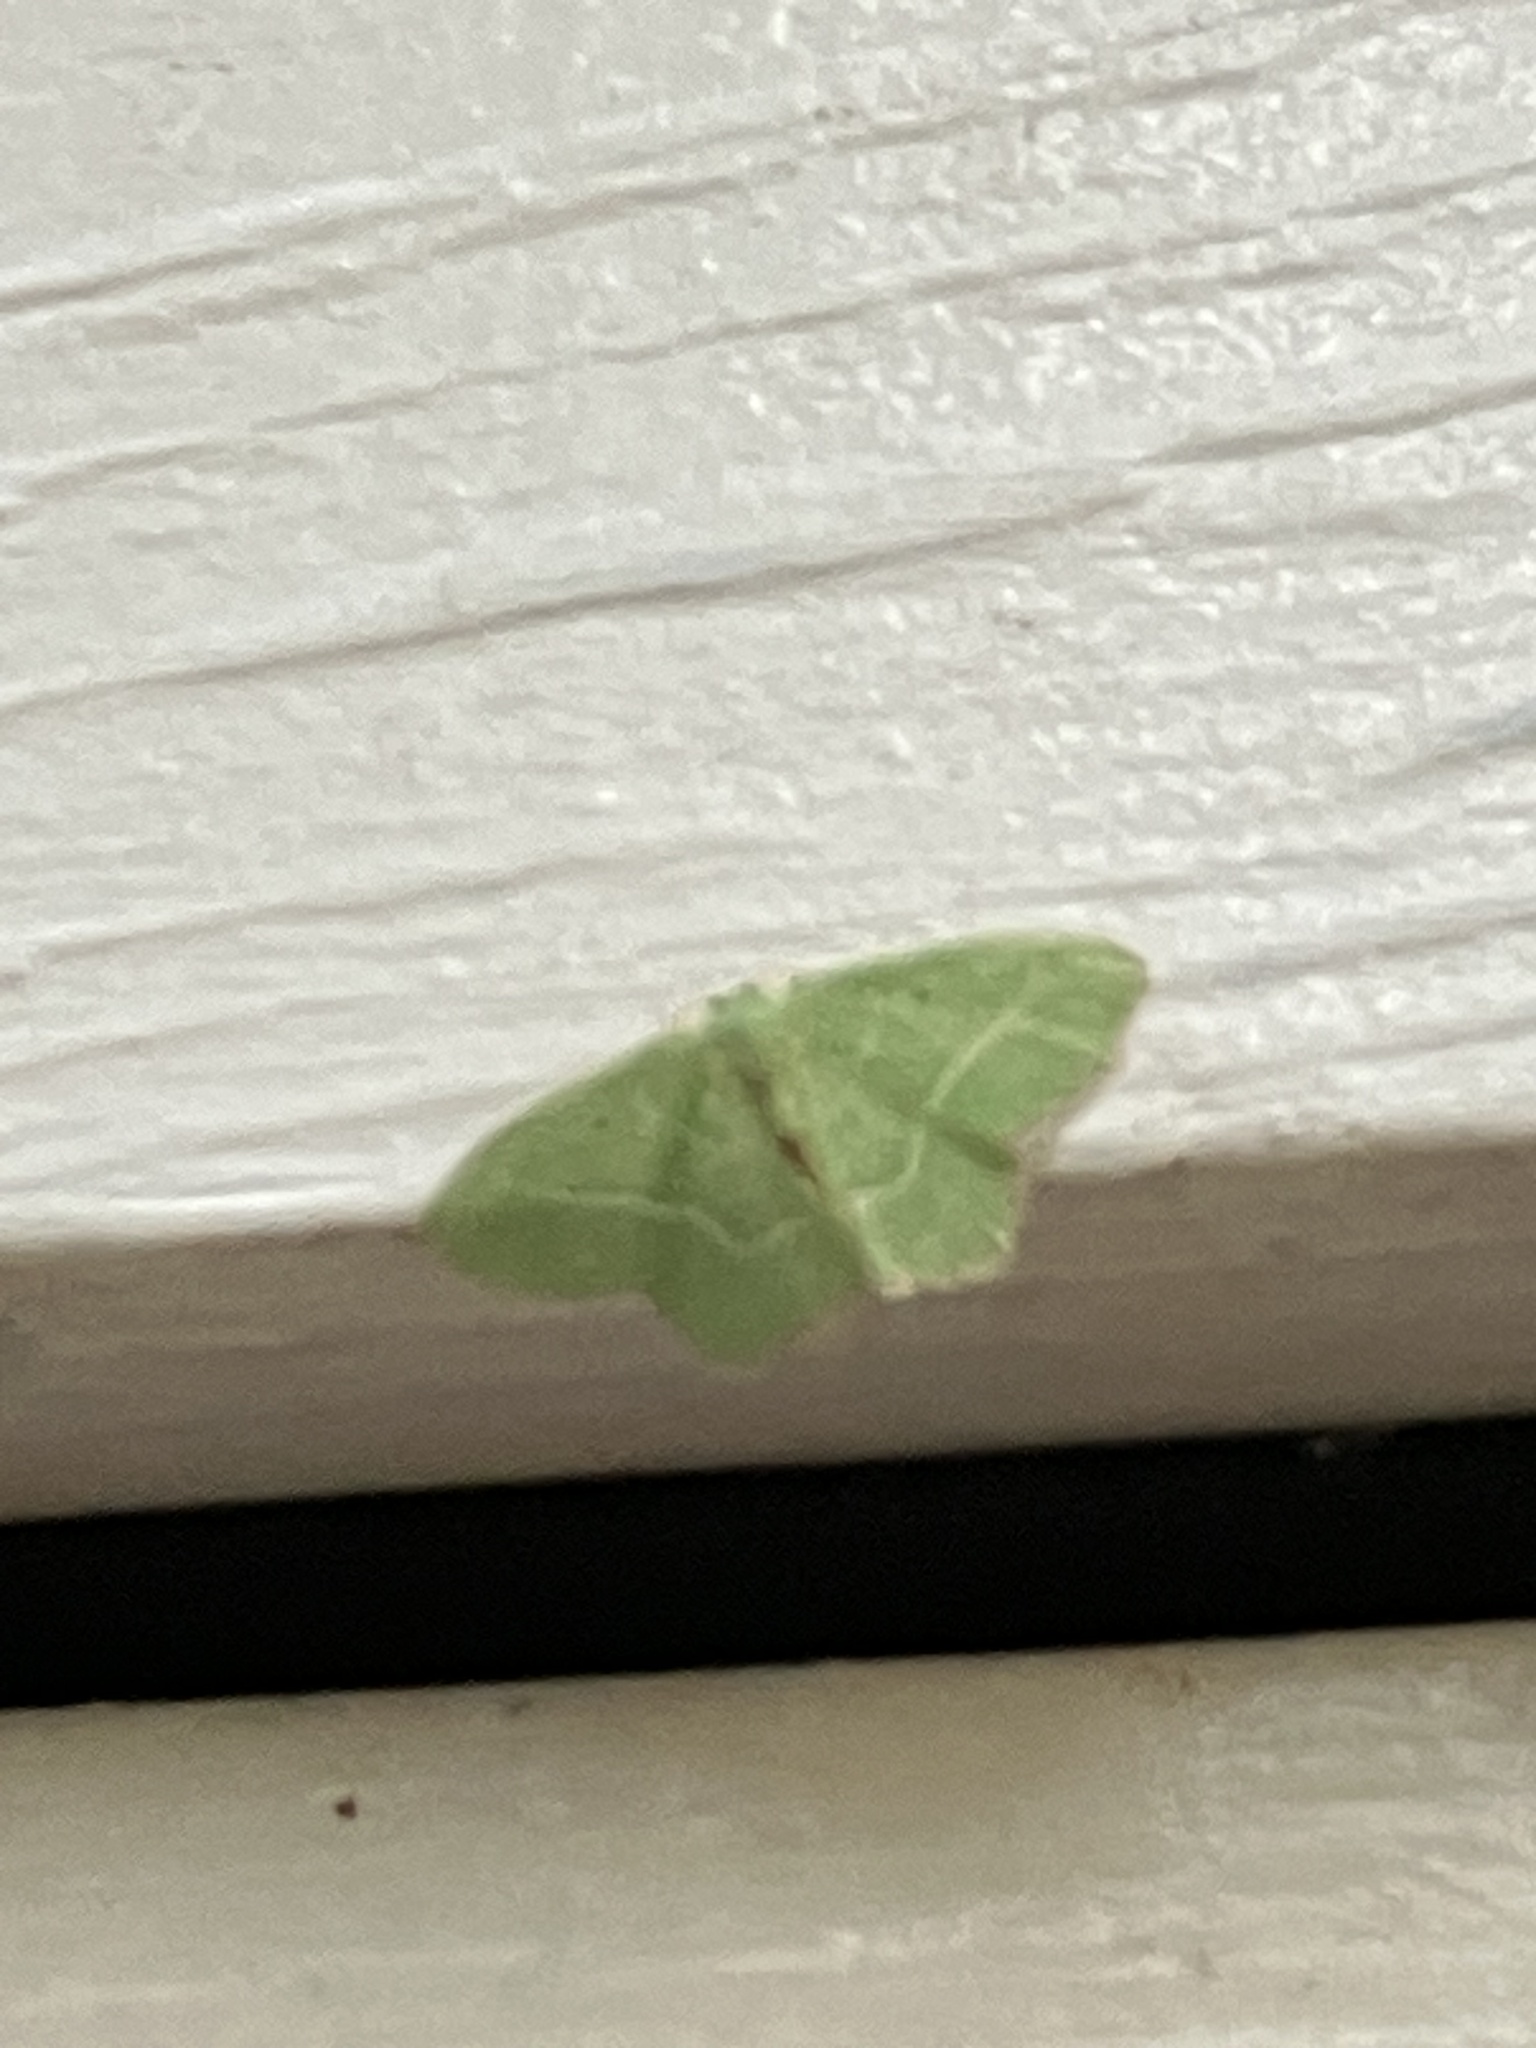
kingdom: Animalia
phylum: Arthropoda
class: Insecta
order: Lepidoptera
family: Geometridae
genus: Nemoria
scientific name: Nemoria saturiba
